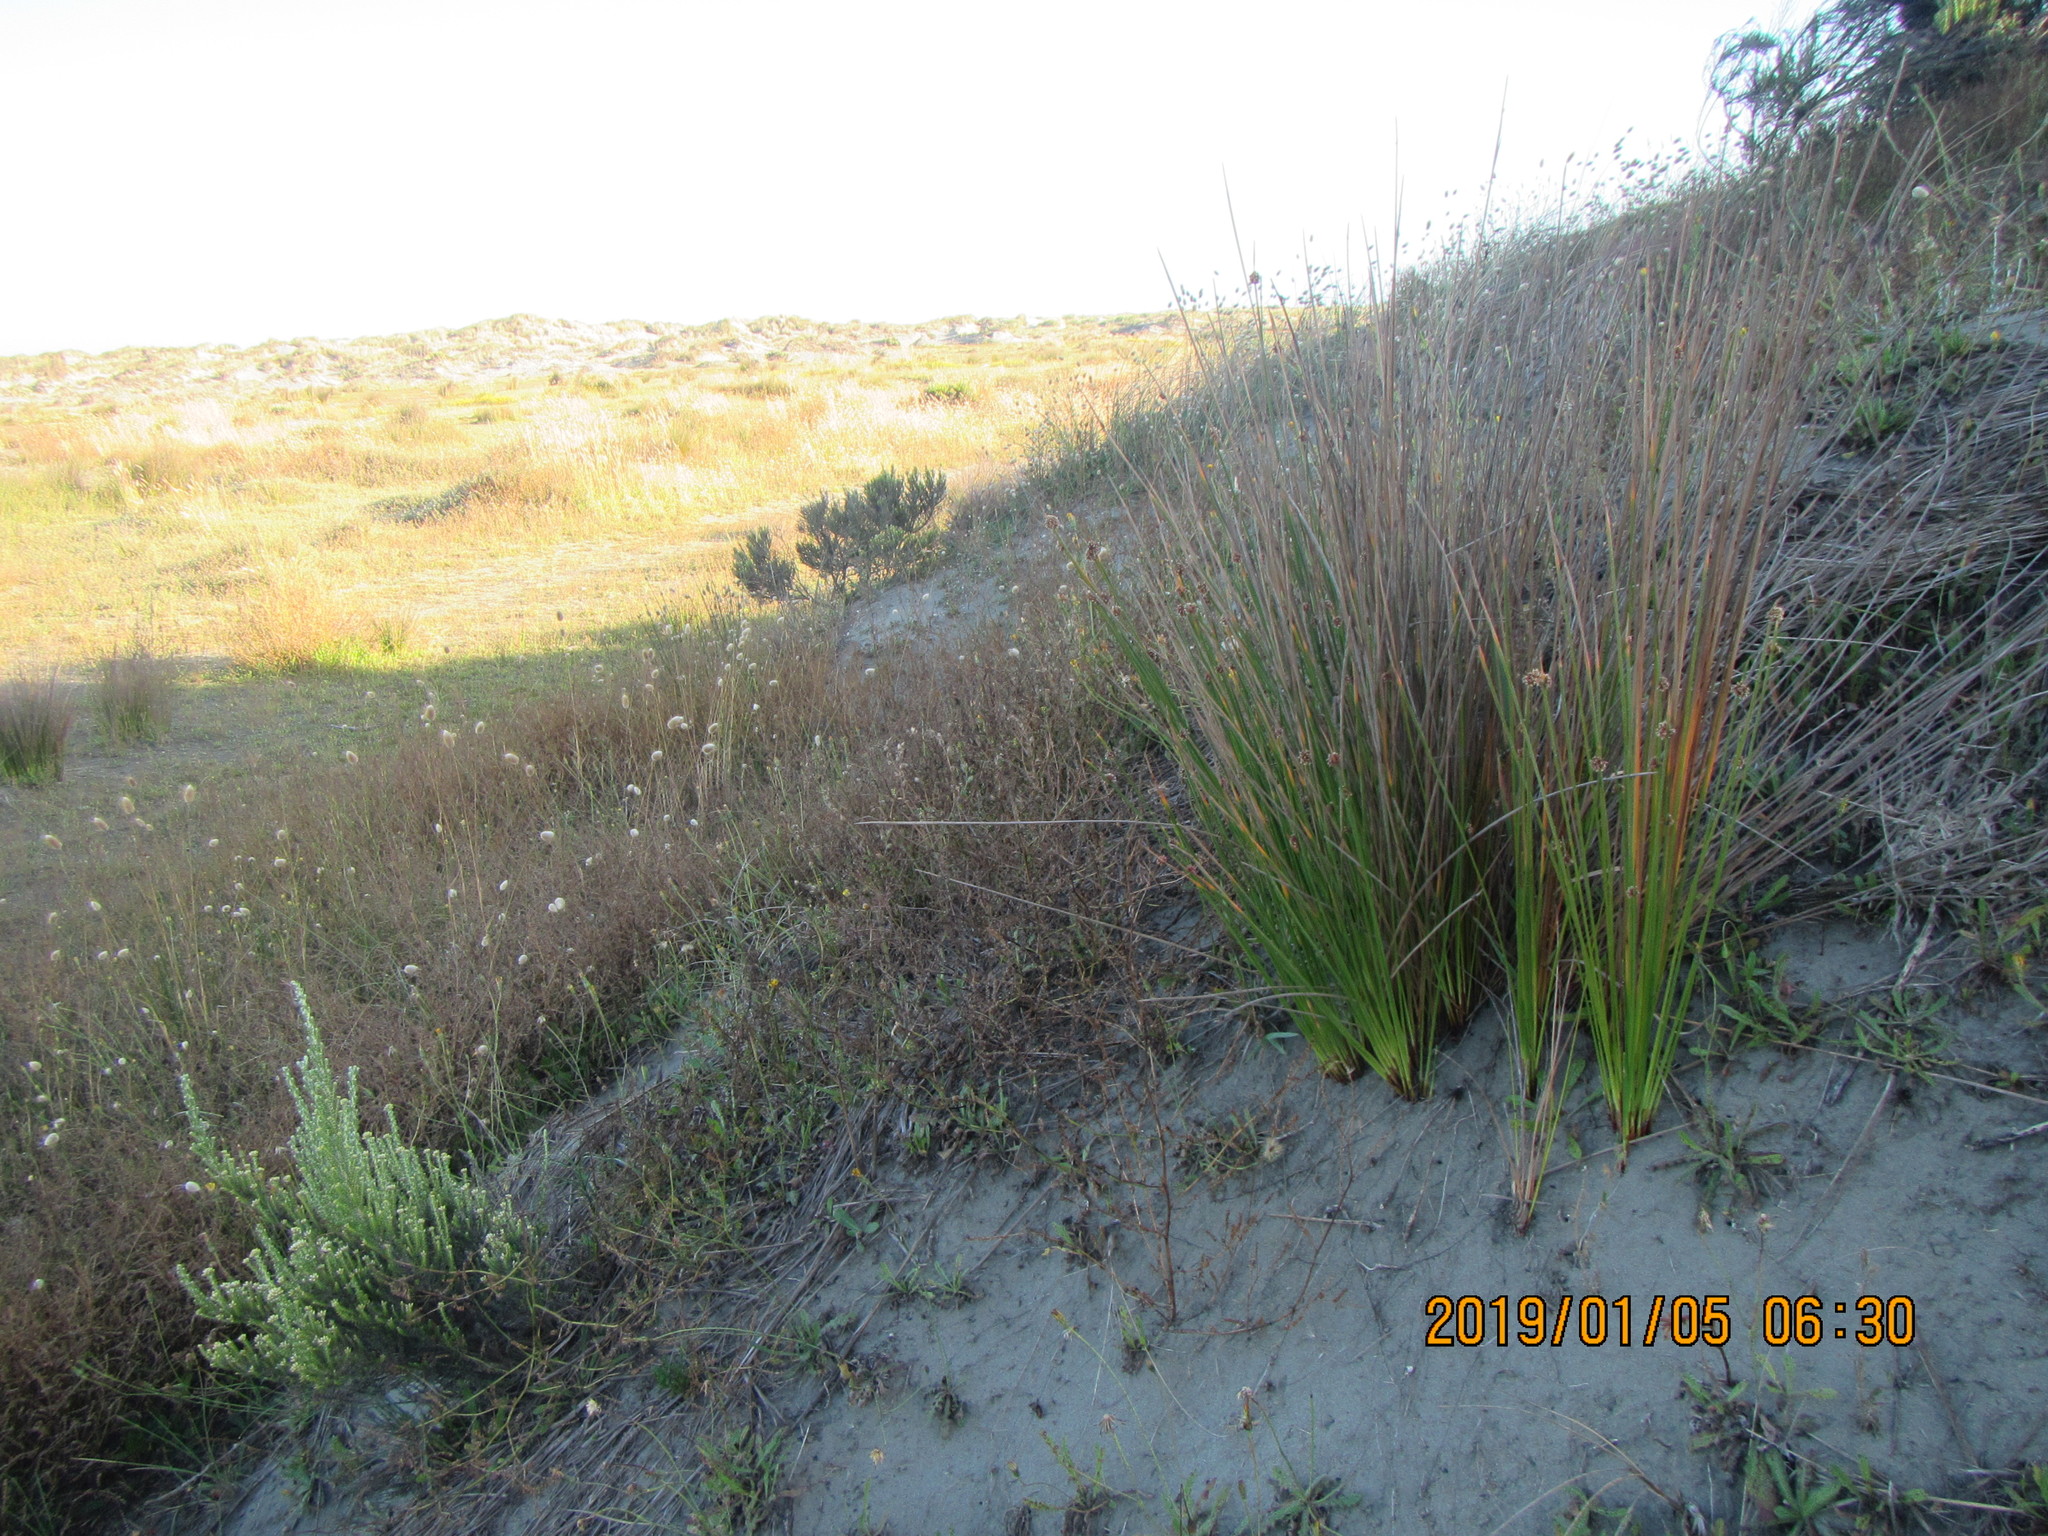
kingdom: Plantae
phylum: Tracheophyta
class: Liliopsida
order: Poales
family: Cyperaceae
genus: Ficinia
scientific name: Ficinia nodosa
